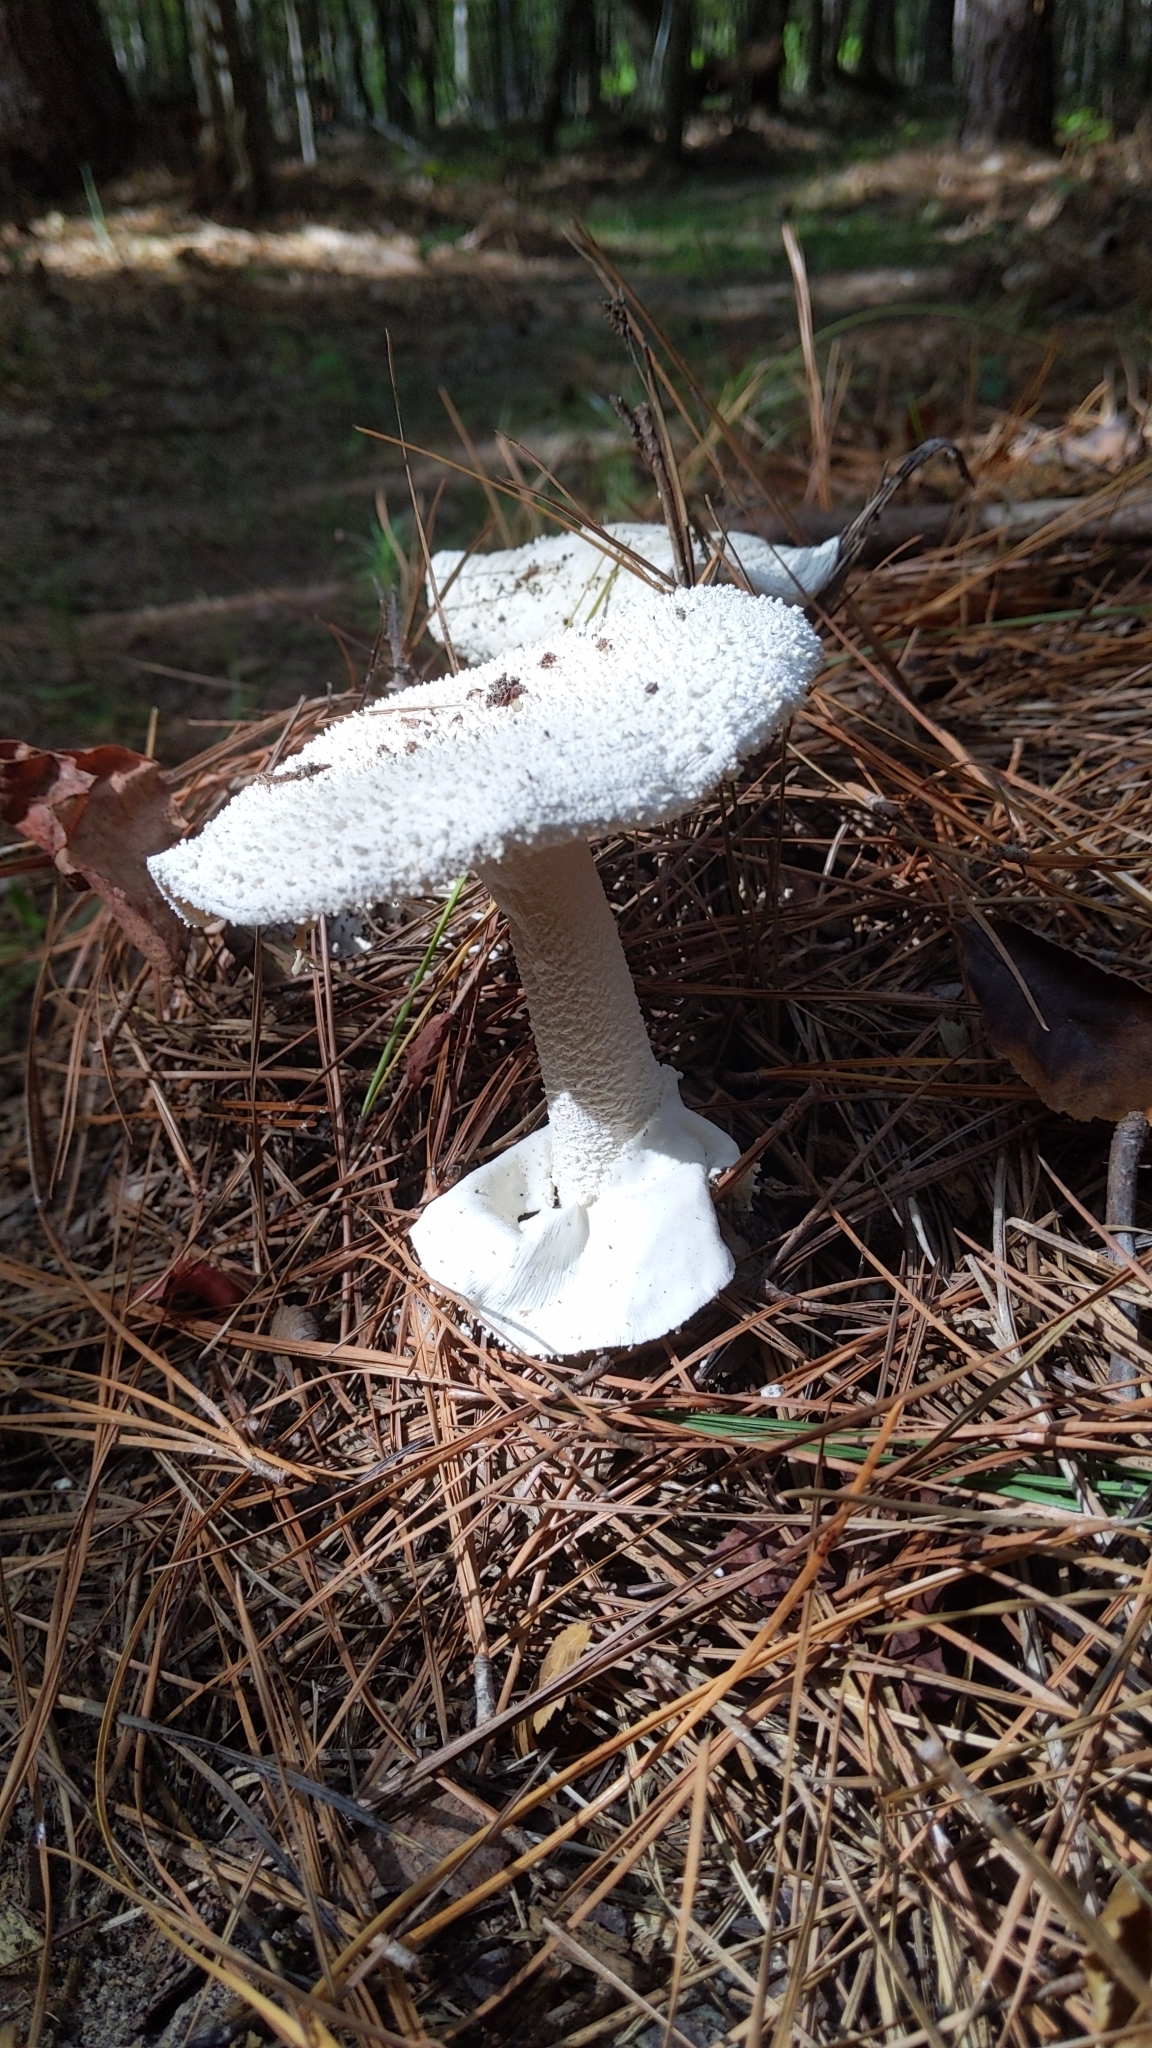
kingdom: Fungi
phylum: Basidiomycota
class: Agaricomycetes
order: Agaricales
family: Amanitaceae
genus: Amanita
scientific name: Amanita polypyramis
